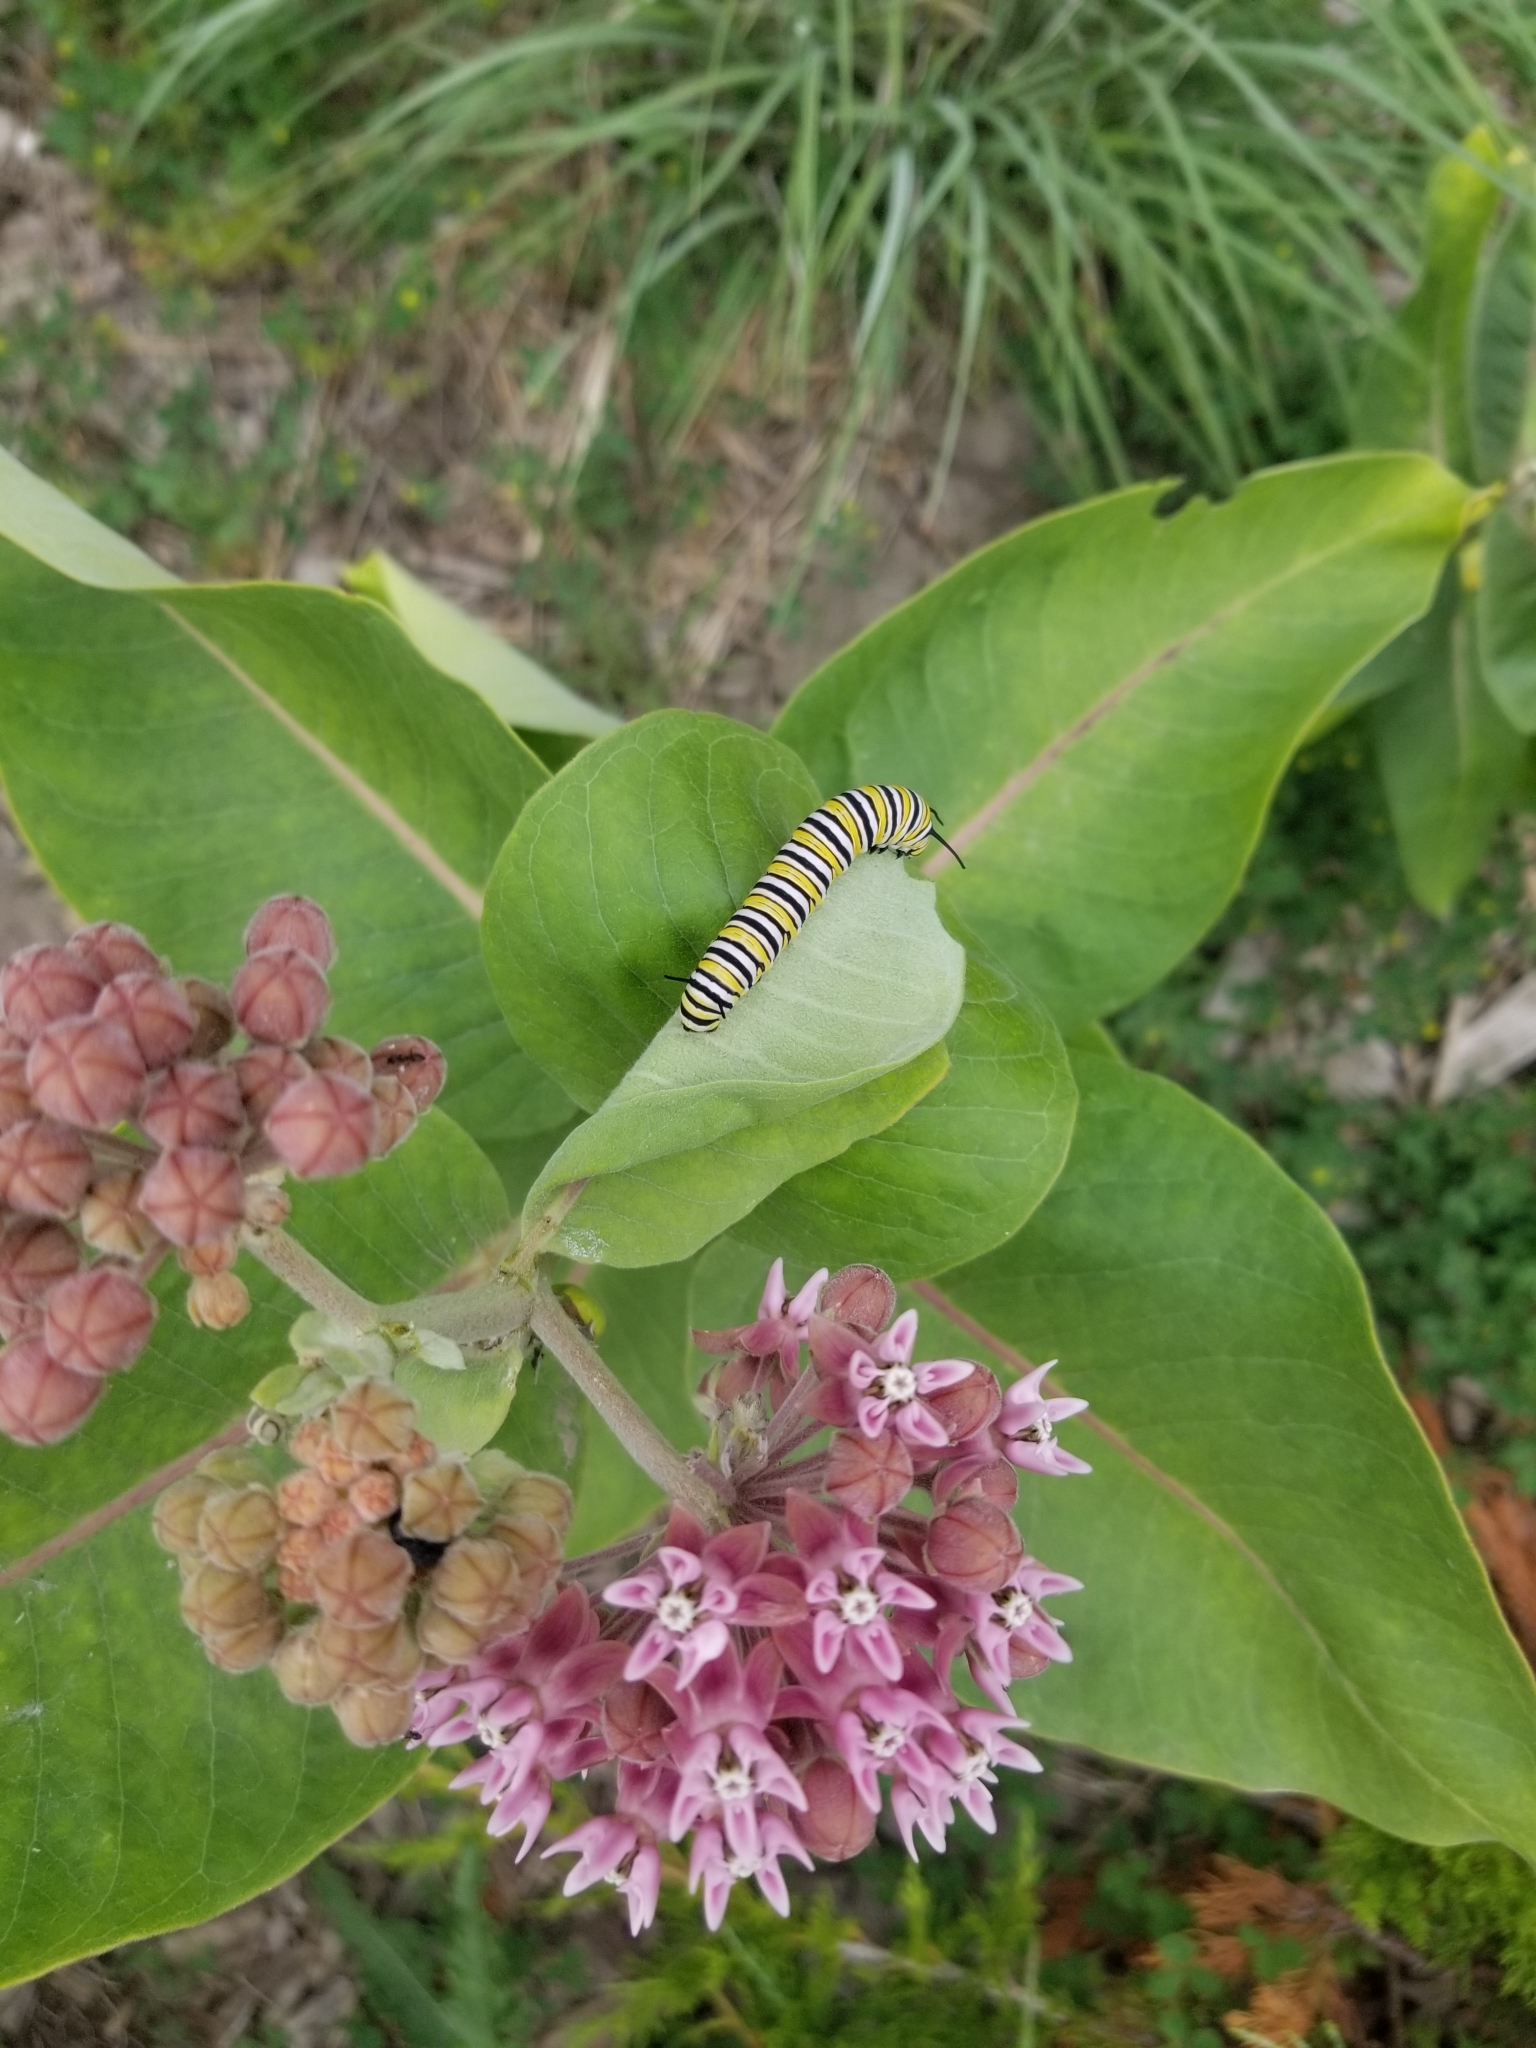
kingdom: Animalia
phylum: Arthropoda
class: Insecta
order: Lepidoptera
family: Nymphalidae
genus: Danaus
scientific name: Danaus plexippus
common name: Monarch
